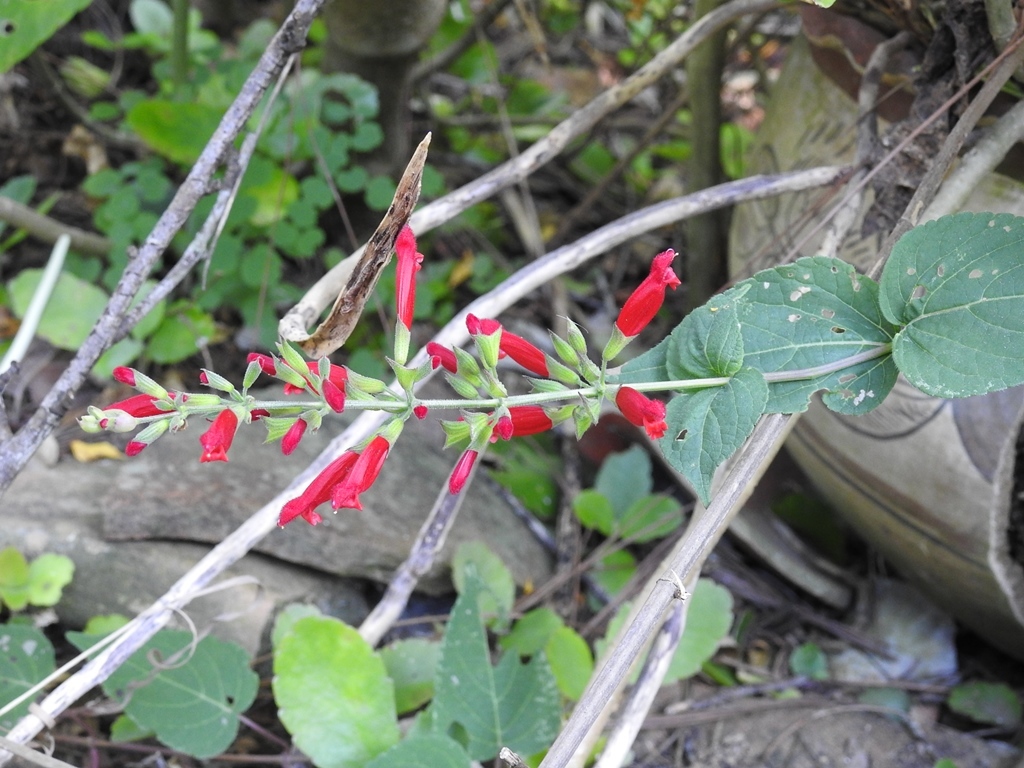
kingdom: Plantae
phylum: Tracheophyta
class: Magnoliopsida
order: Lamiales
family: Lamiaceae
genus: Salvia
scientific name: Salvia holwayi
